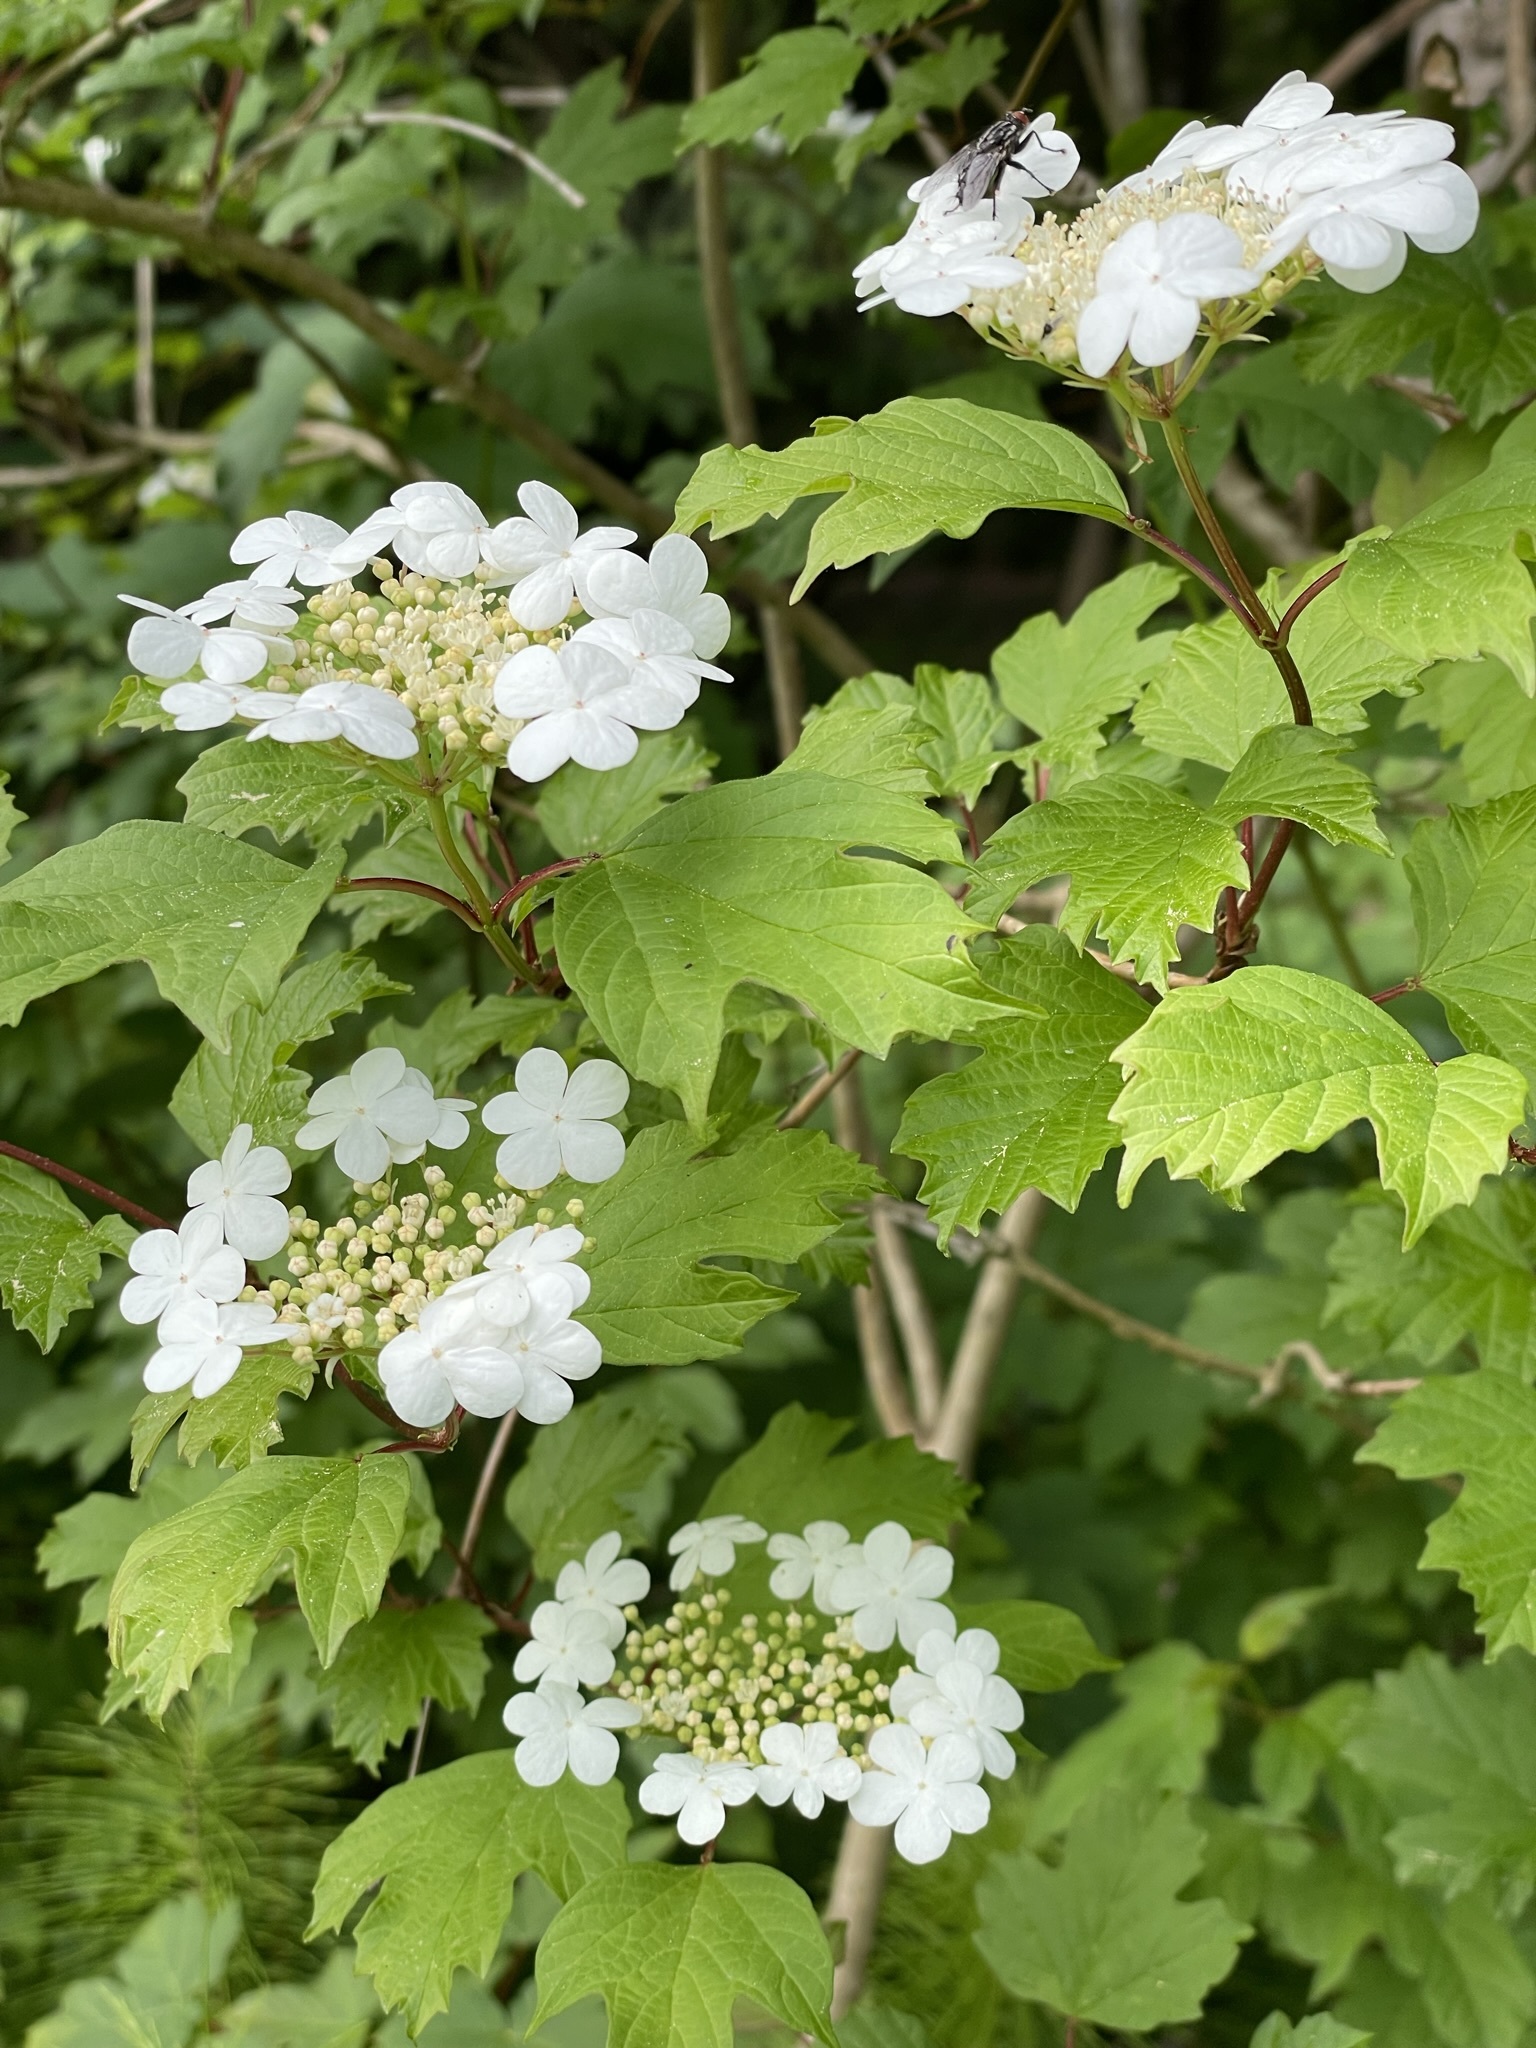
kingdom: Plantae
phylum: Tracheophyta
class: Magnoliopsida
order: Dipsacales
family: Viburnaceae
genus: Viburnum
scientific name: Viburnum opulus
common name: Guelder-rose
